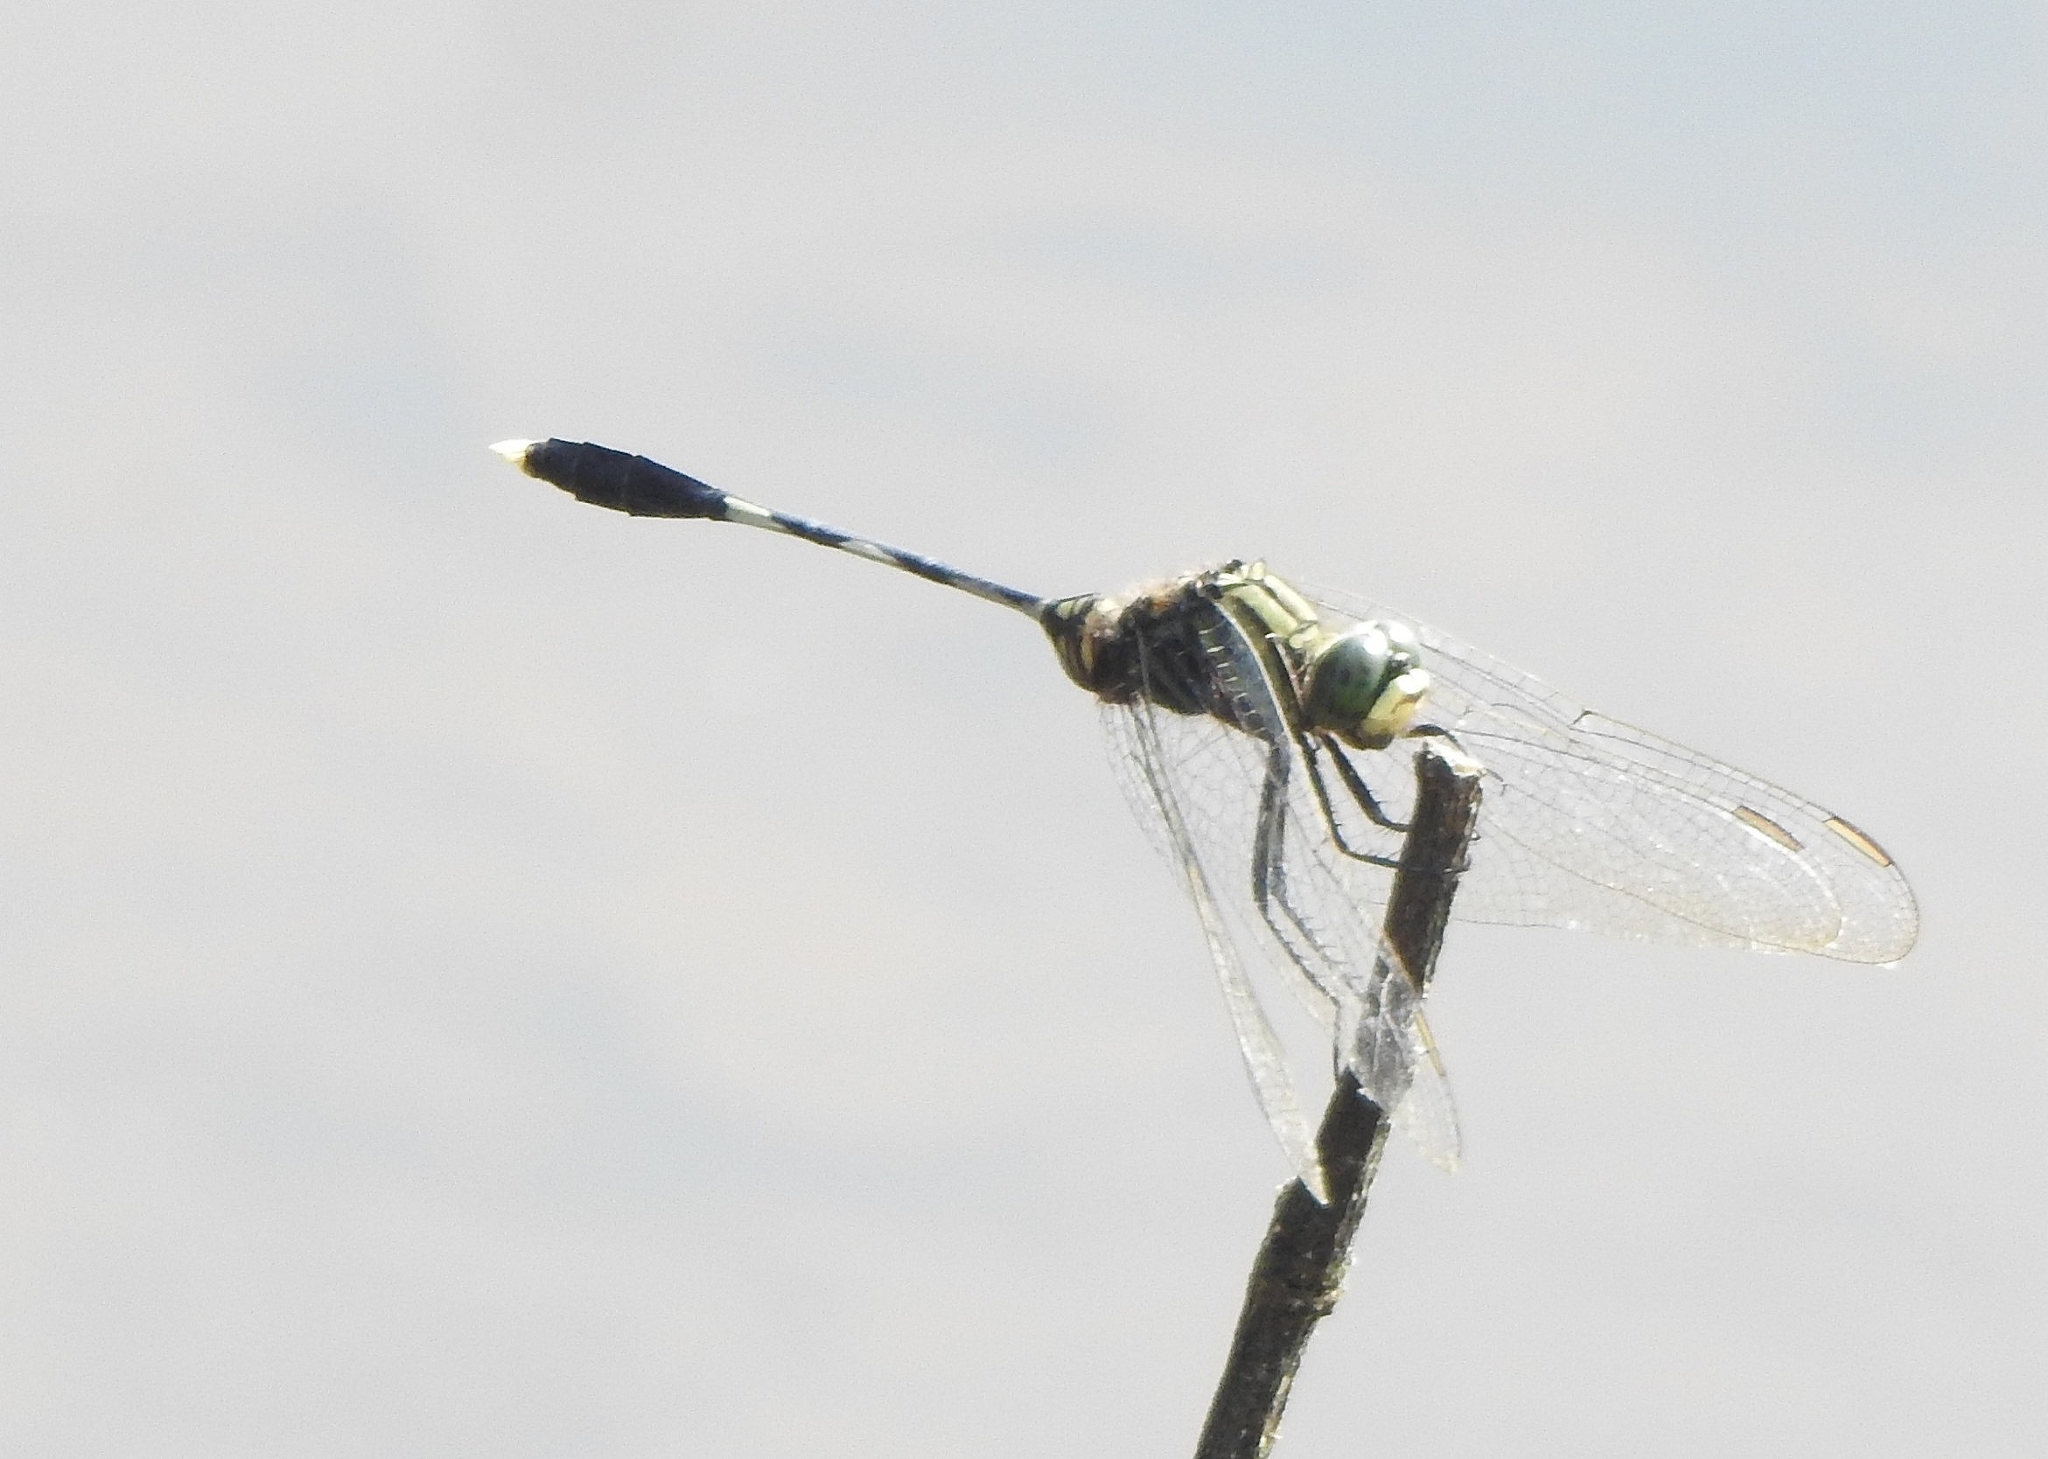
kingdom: Animalia
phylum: Arthropoda
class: Insecta
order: Odonata
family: Libellulidae
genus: Orthetrum
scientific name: Orthetrum sabina
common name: Slender skimmer
